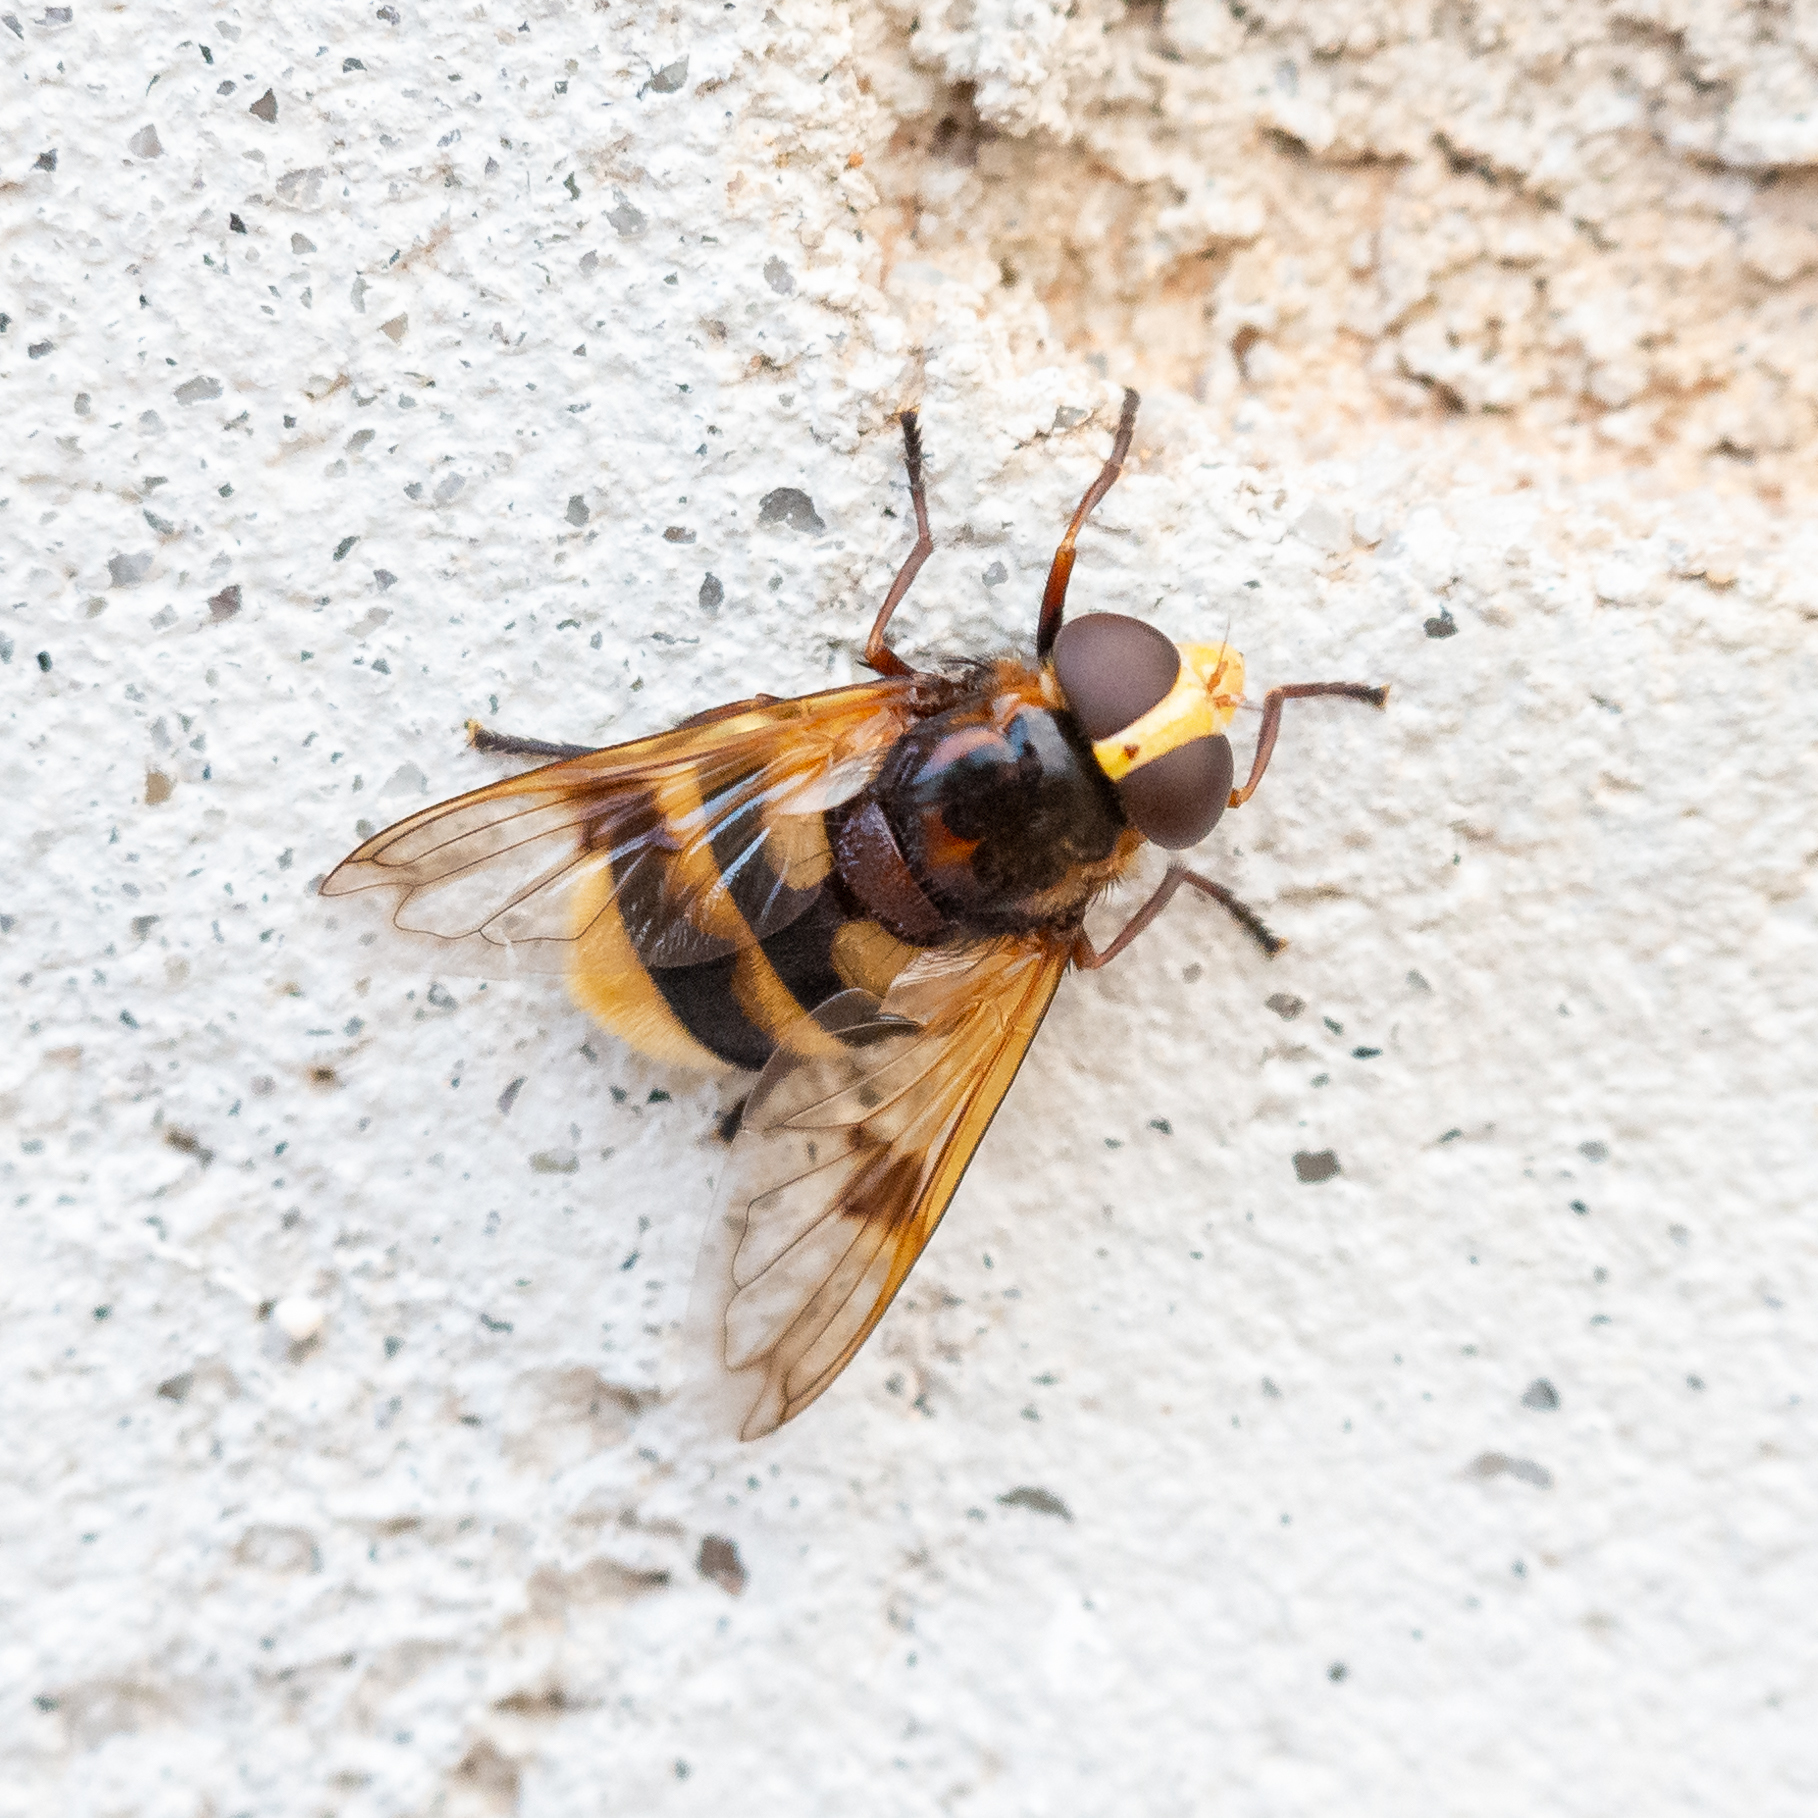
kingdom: Animalia
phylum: Arthropoda
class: Insecta
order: Diptera
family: Syrphidae
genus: Volucella
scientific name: Volucella elegans
